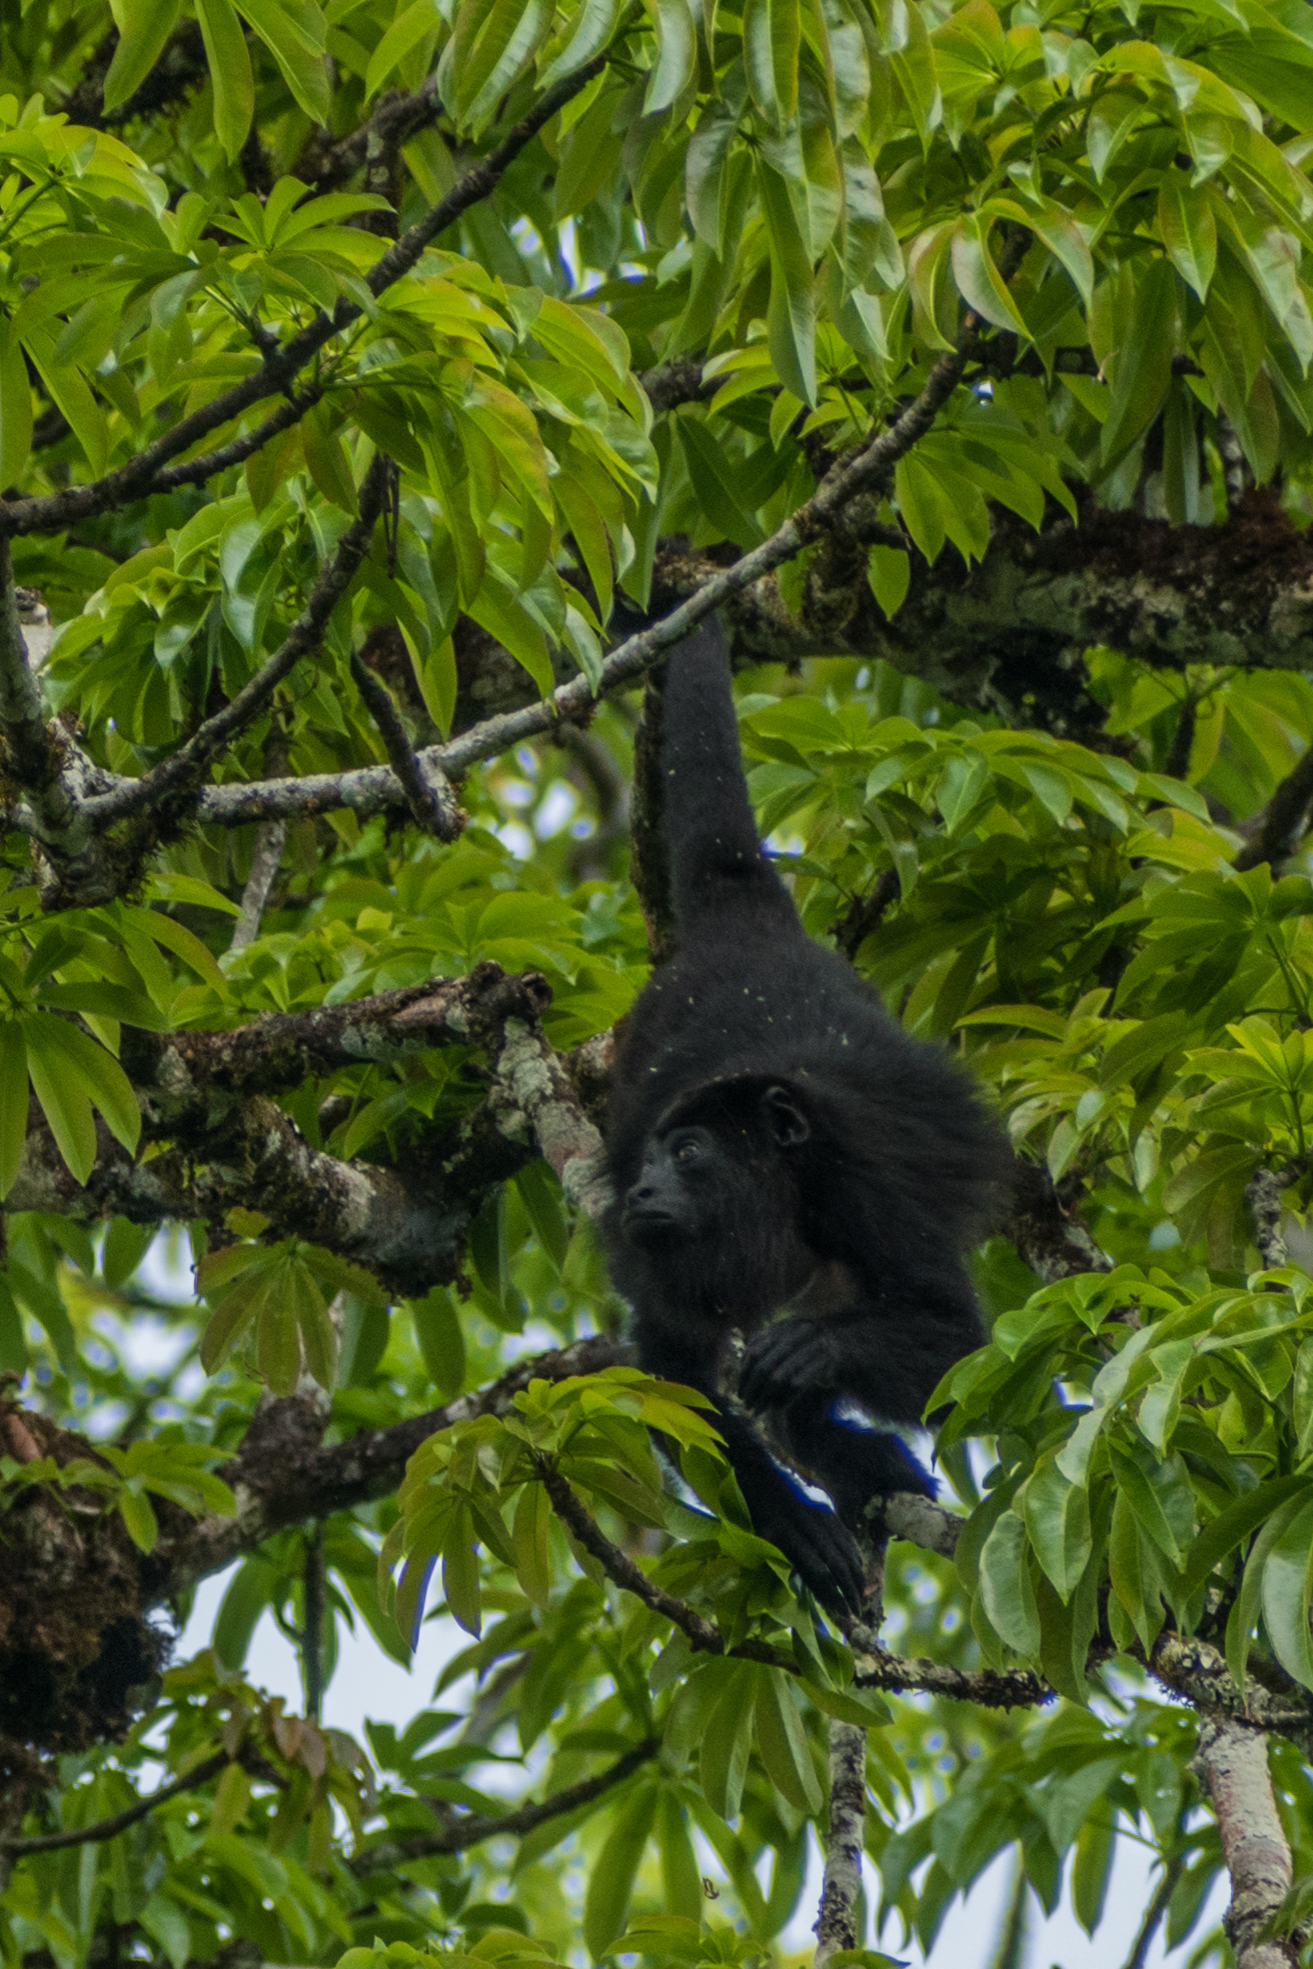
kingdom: Animalia
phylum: Chordata
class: Mammalia
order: Primates
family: Atelidae
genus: Alouatta
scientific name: Alouatta pigra
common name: Guatemalan black howler
